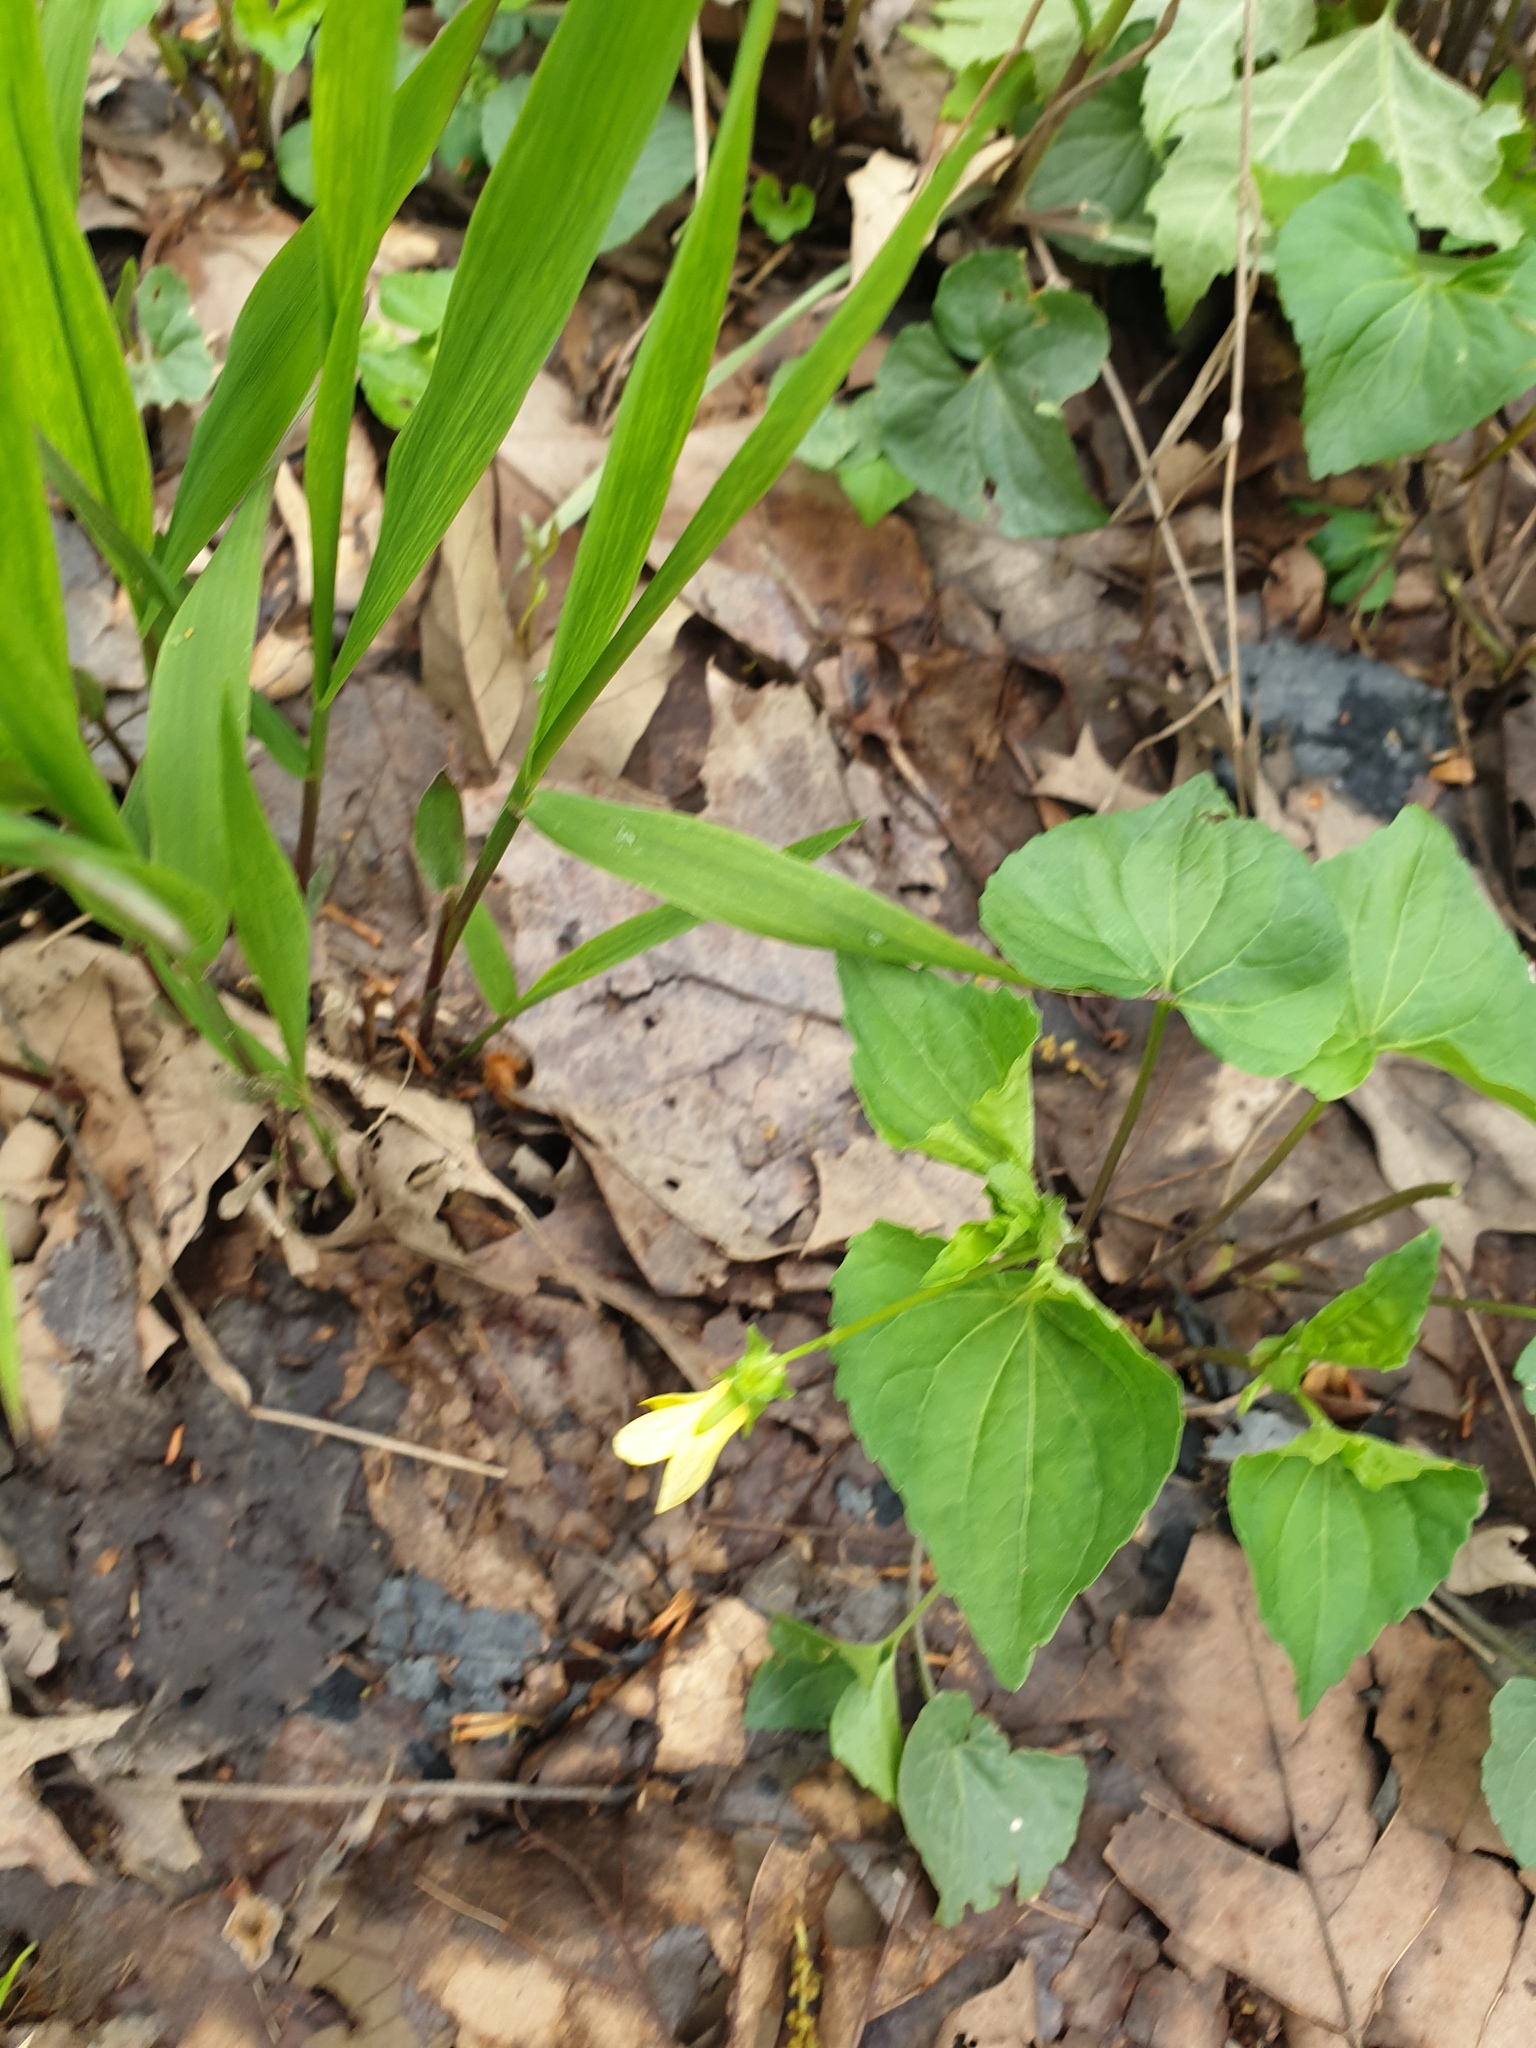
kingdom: Plantae
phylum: Tracheophyta
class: Magnoliopsida
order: Malpighiales
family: Violaceae
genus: Viola
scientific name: Viola eriocarpa
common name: Smooth yellow violet
